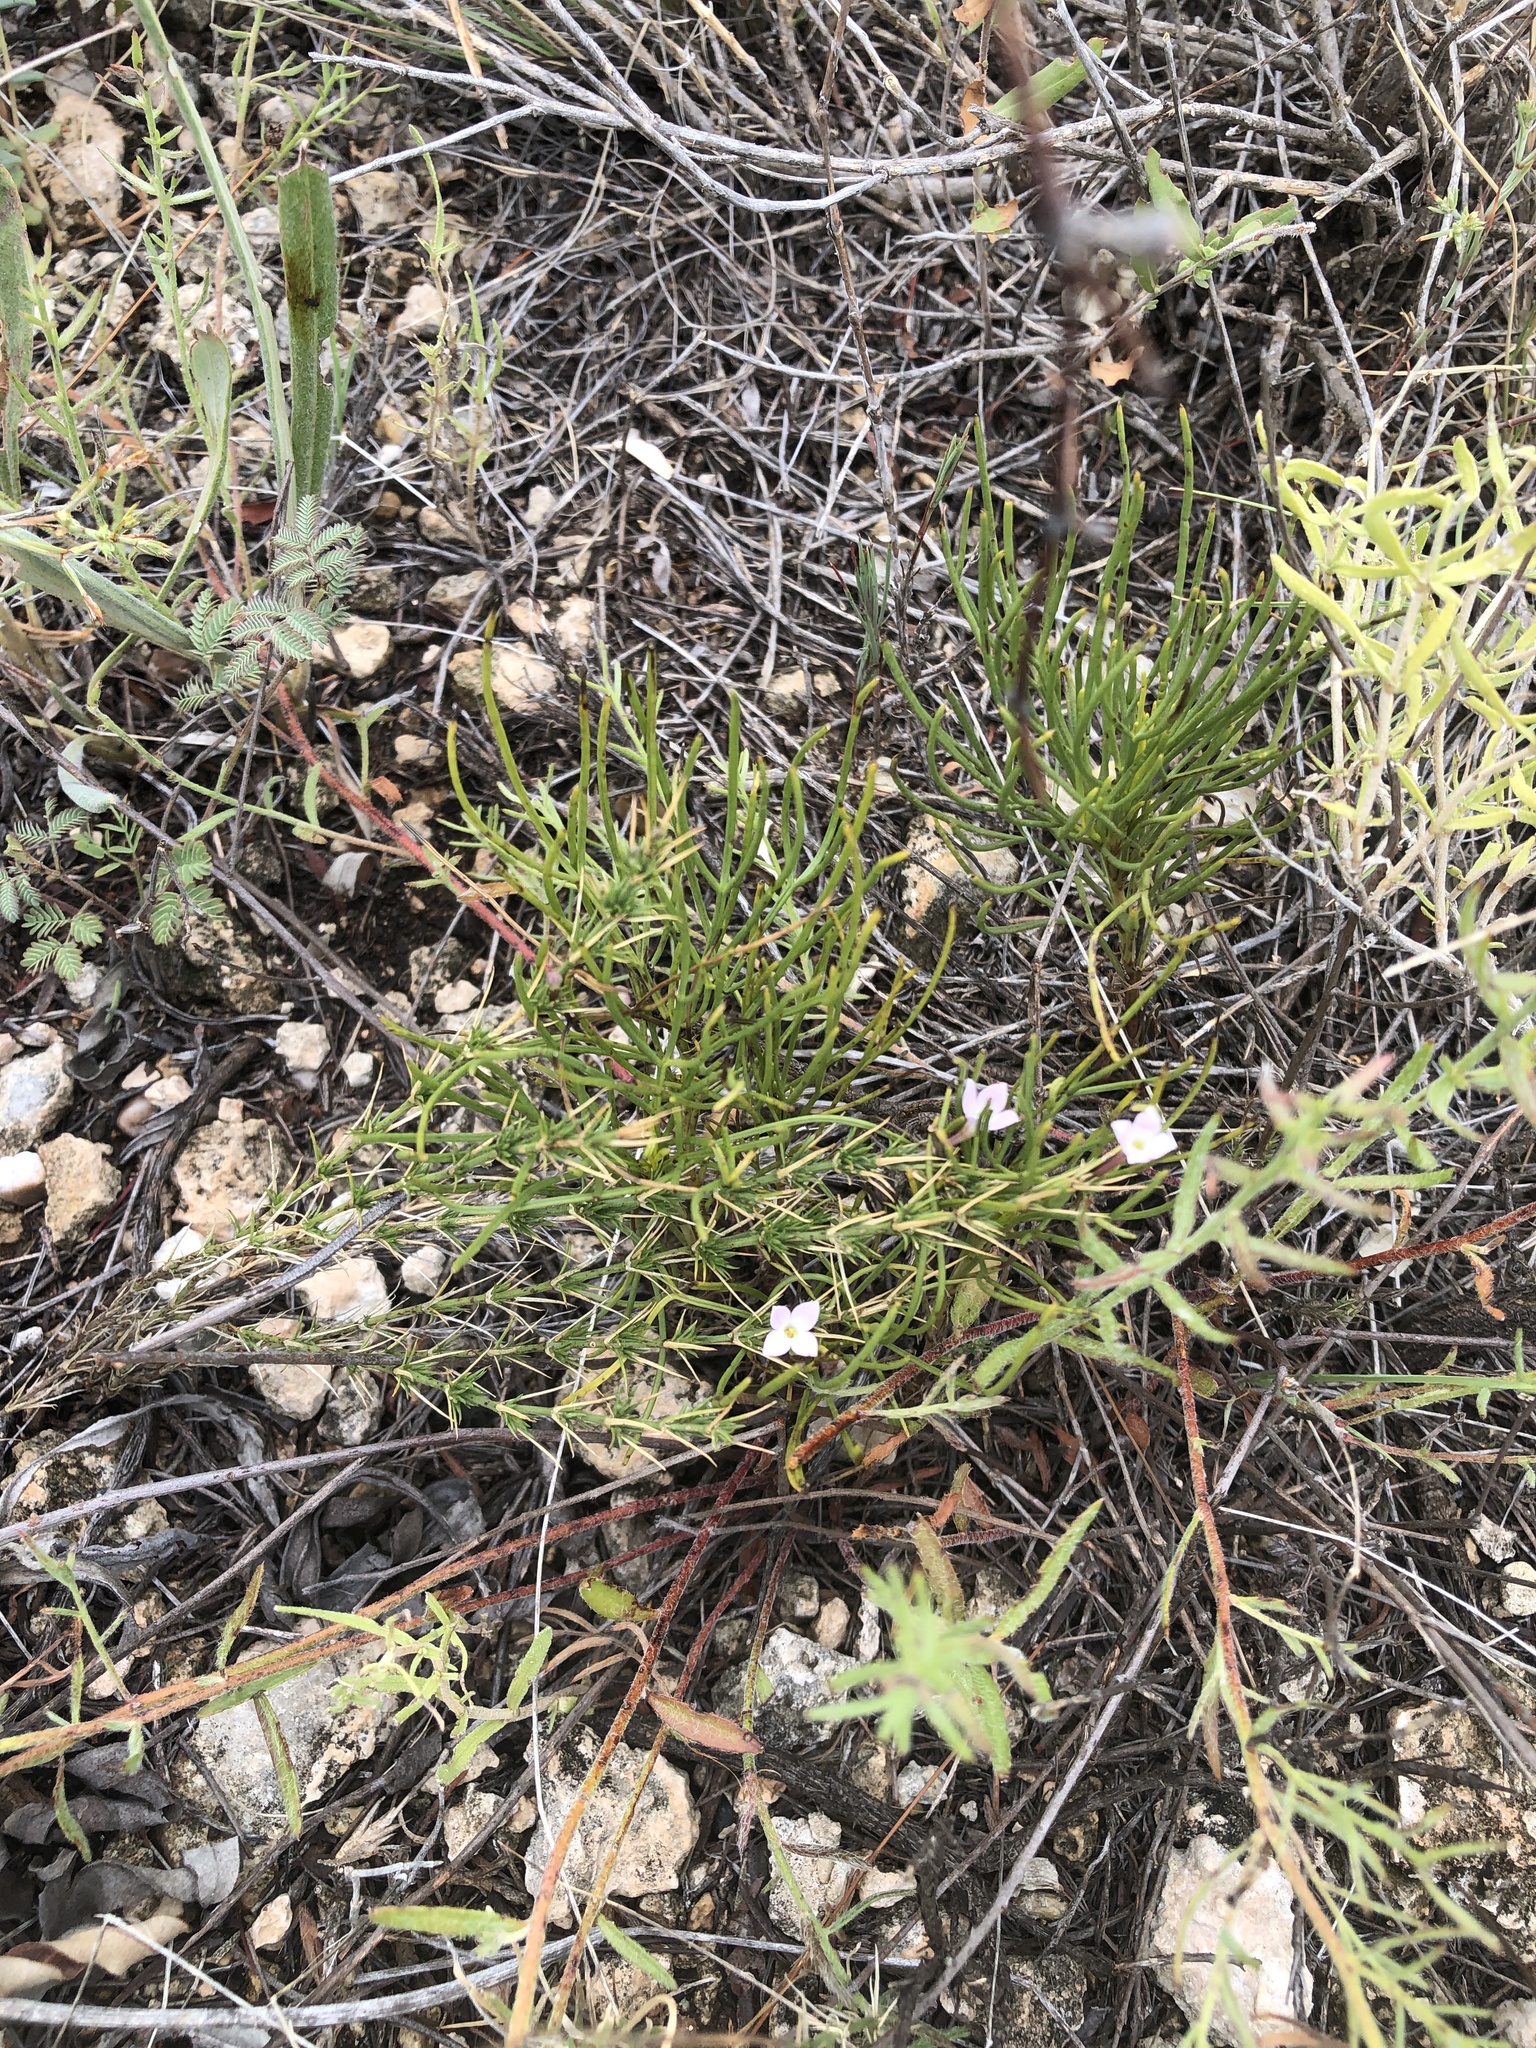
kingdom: Plantae
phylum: Tracheophyta
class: Magnoliopsida
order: Gentianales
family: Rubiaceae
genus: Houstonia
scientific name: Houstonia acerosa
